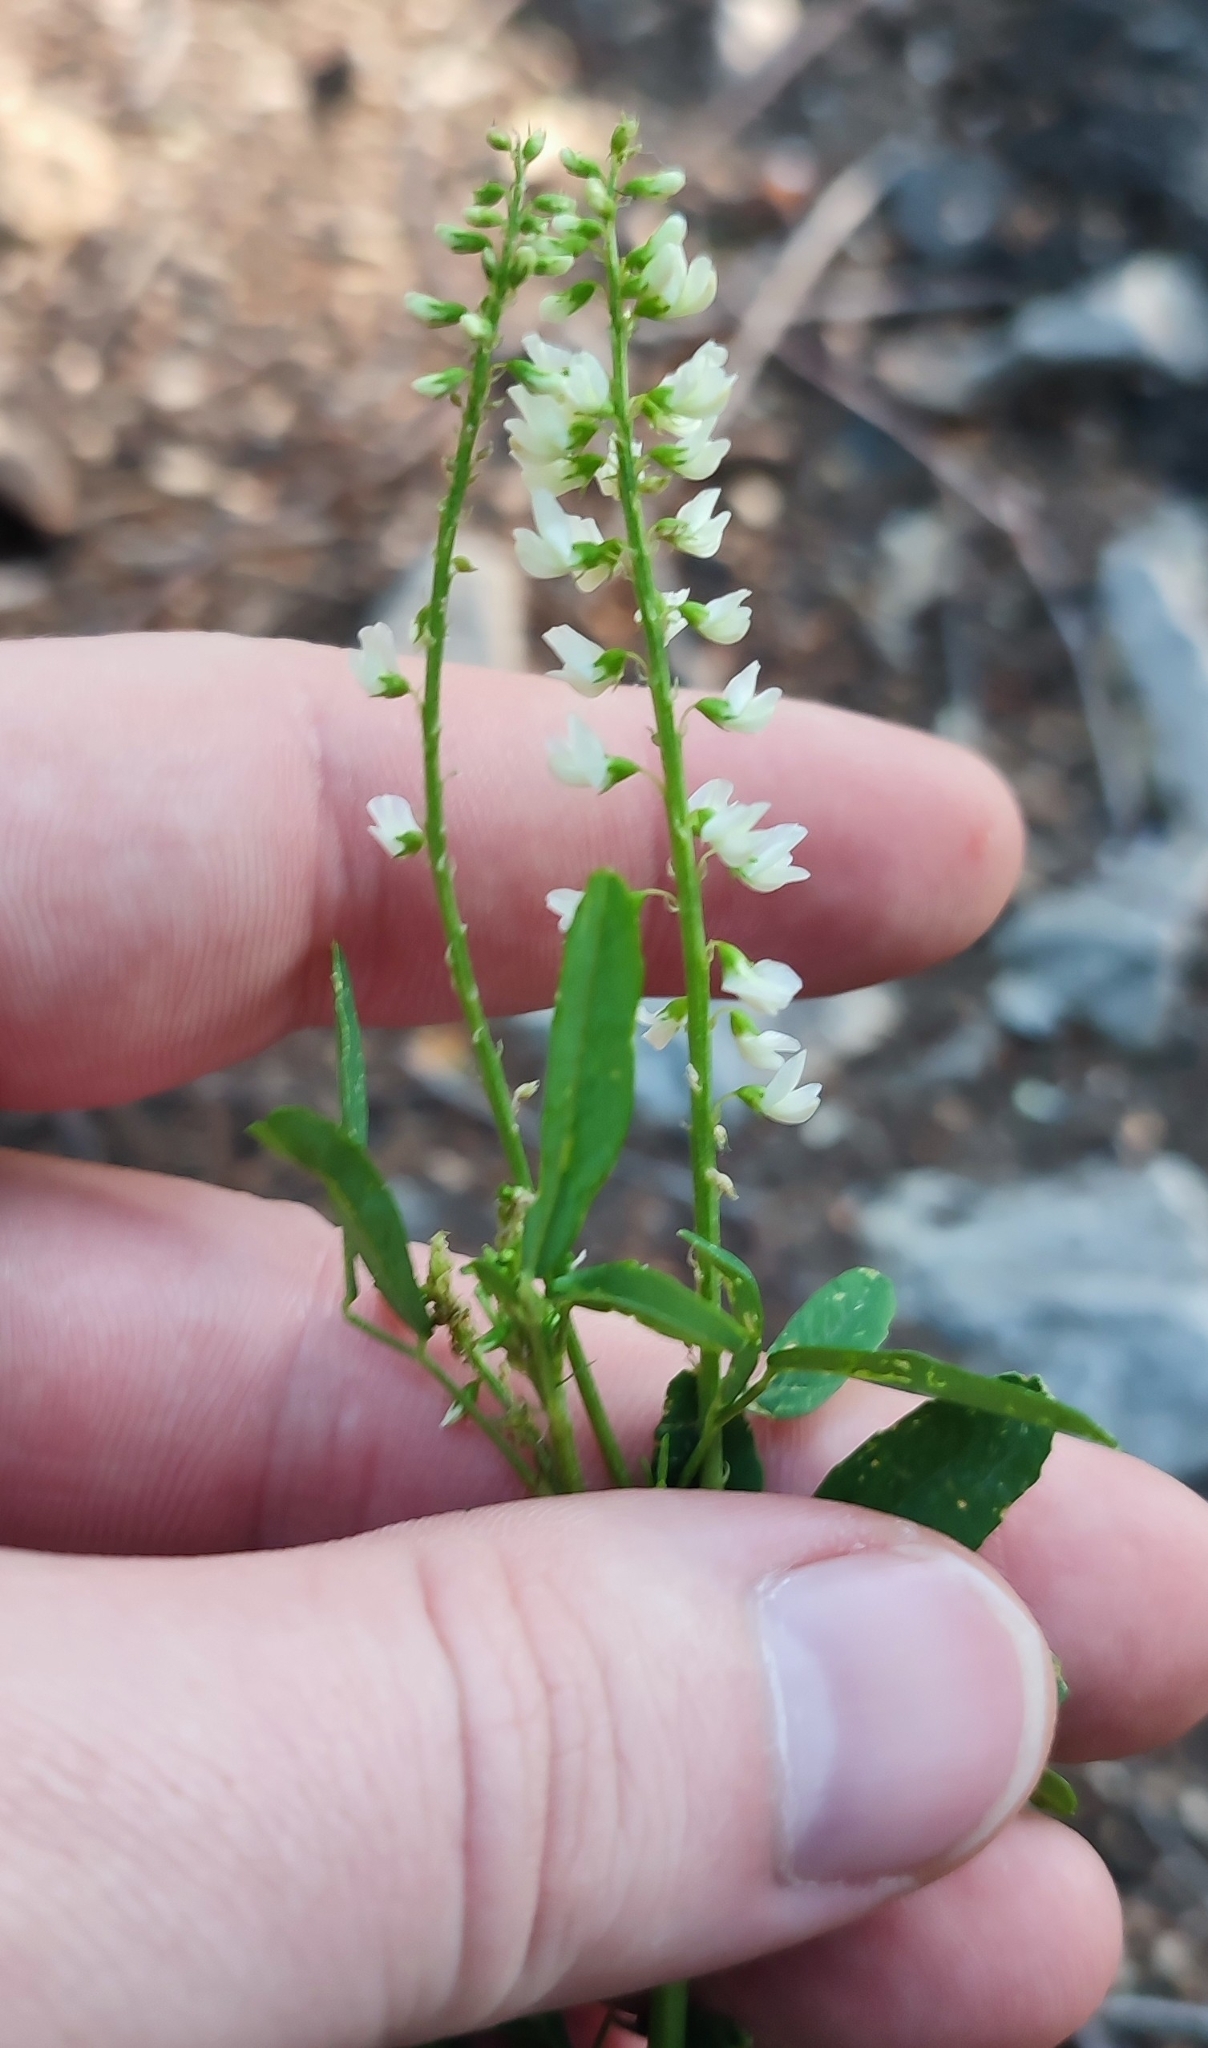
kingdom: Plantae
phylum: Tracheophyta
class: Magnoliopsida
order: Fabales
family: Fabaceae
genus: Melilotus
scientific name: Melilotus albus
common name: White melilot
